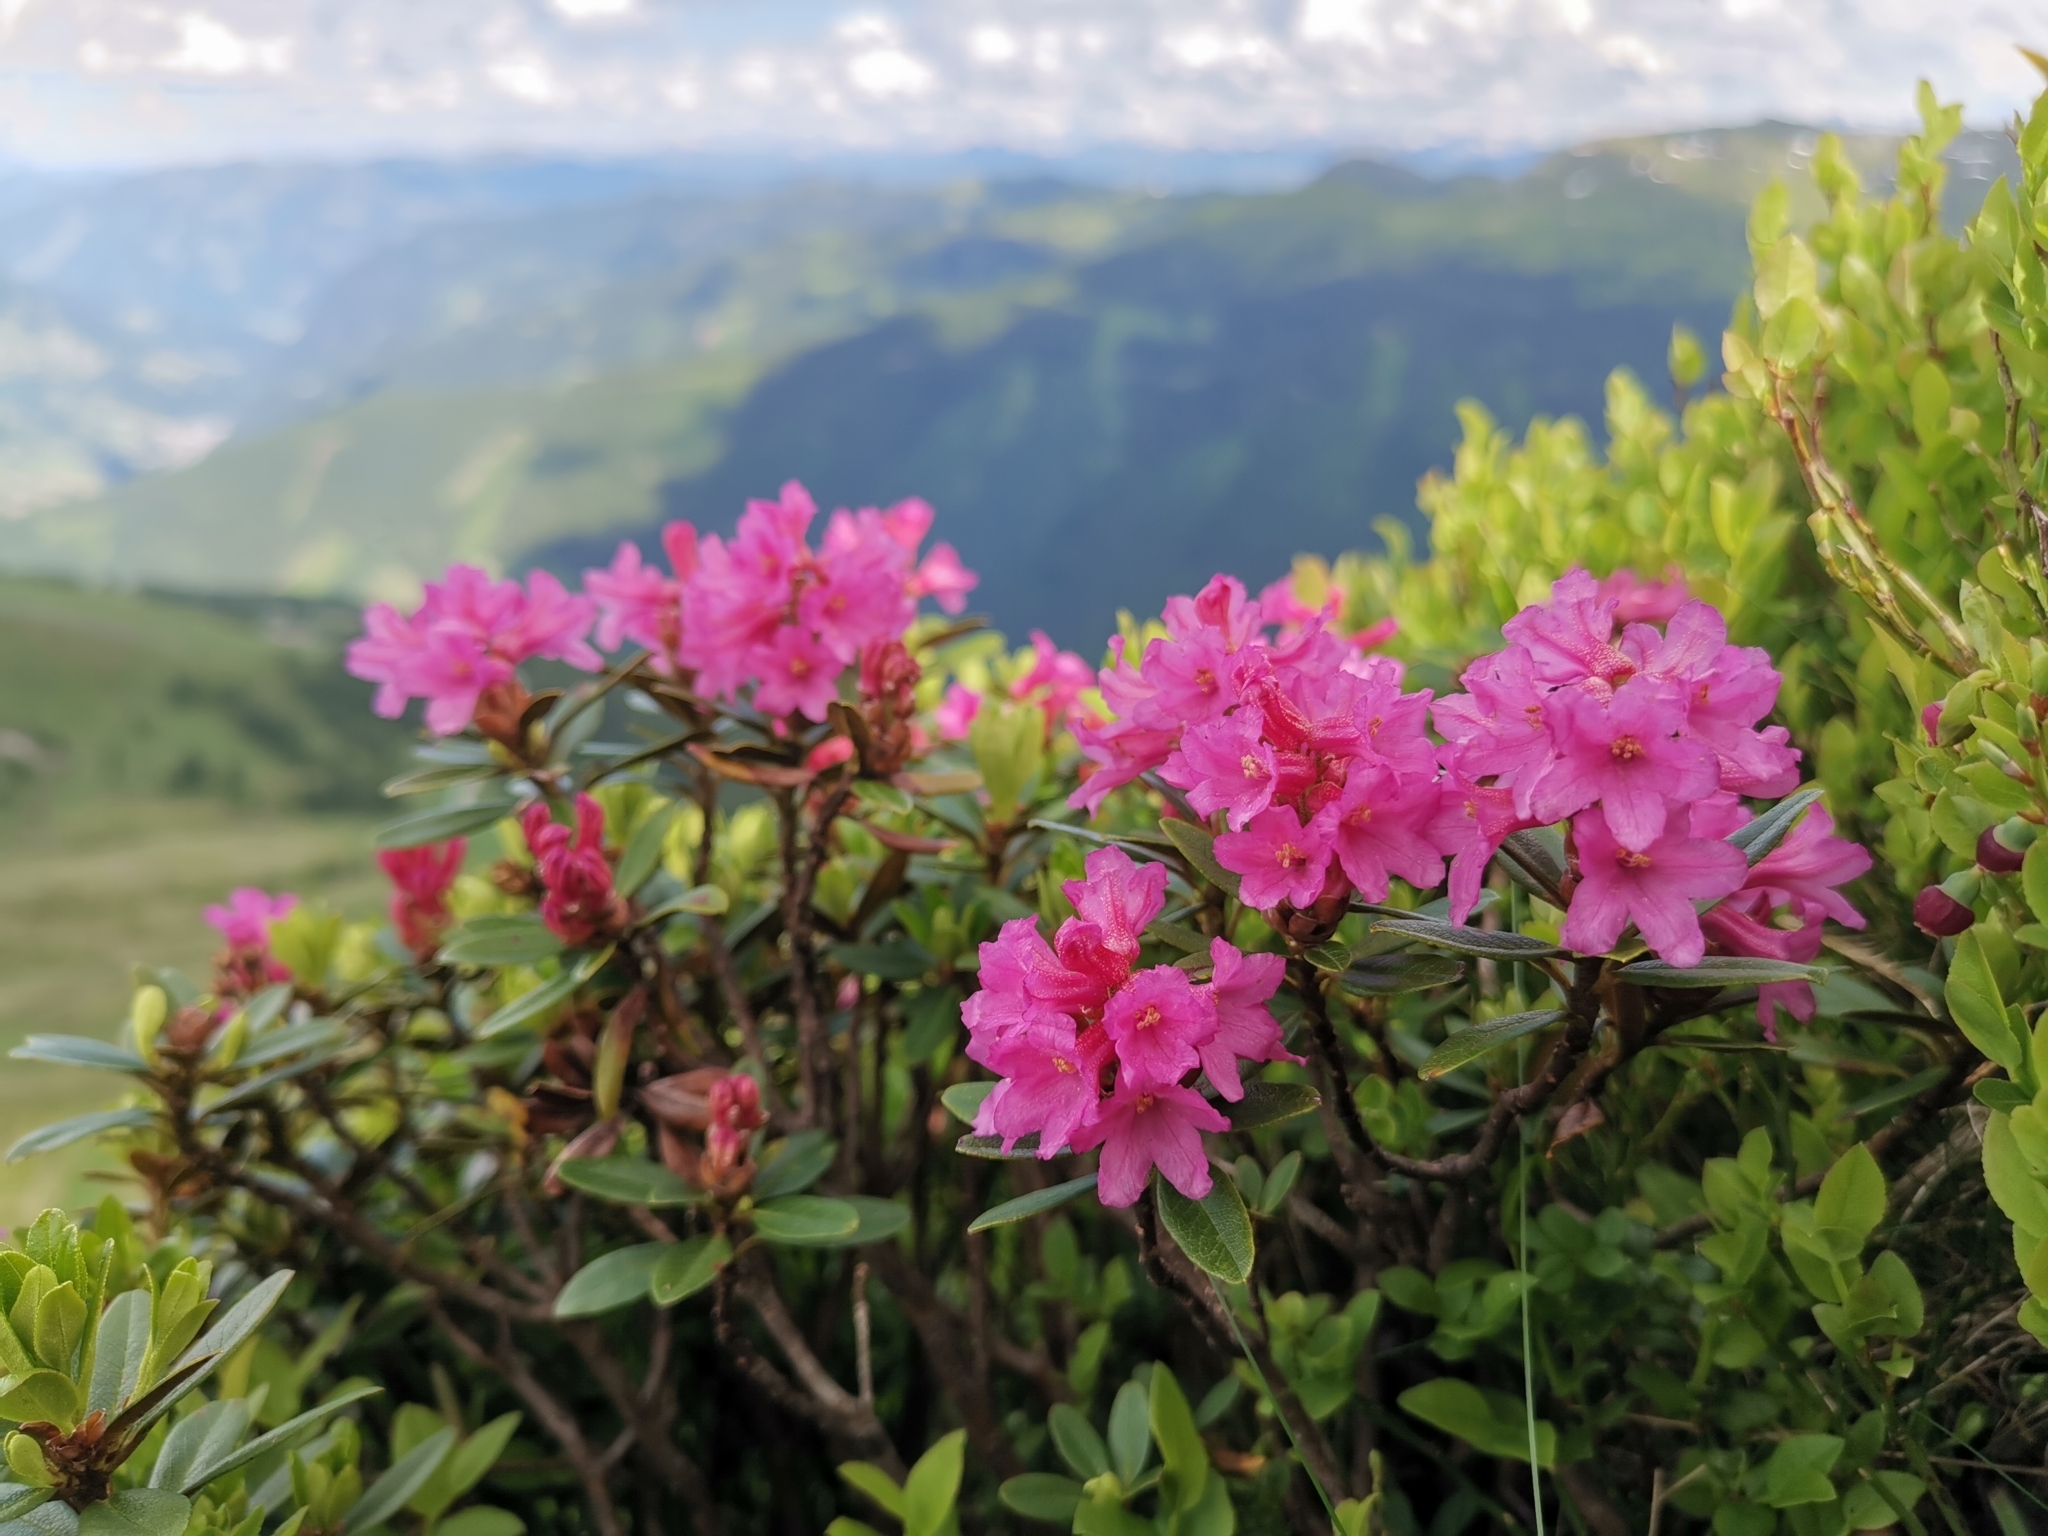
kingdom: Plantae
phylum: Tracheophyta
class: Magnoliopsida
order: Ericales
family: Ericaceae
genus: Rhododendron
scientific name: Rhododendron ferrugineum
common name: Alpenrose
